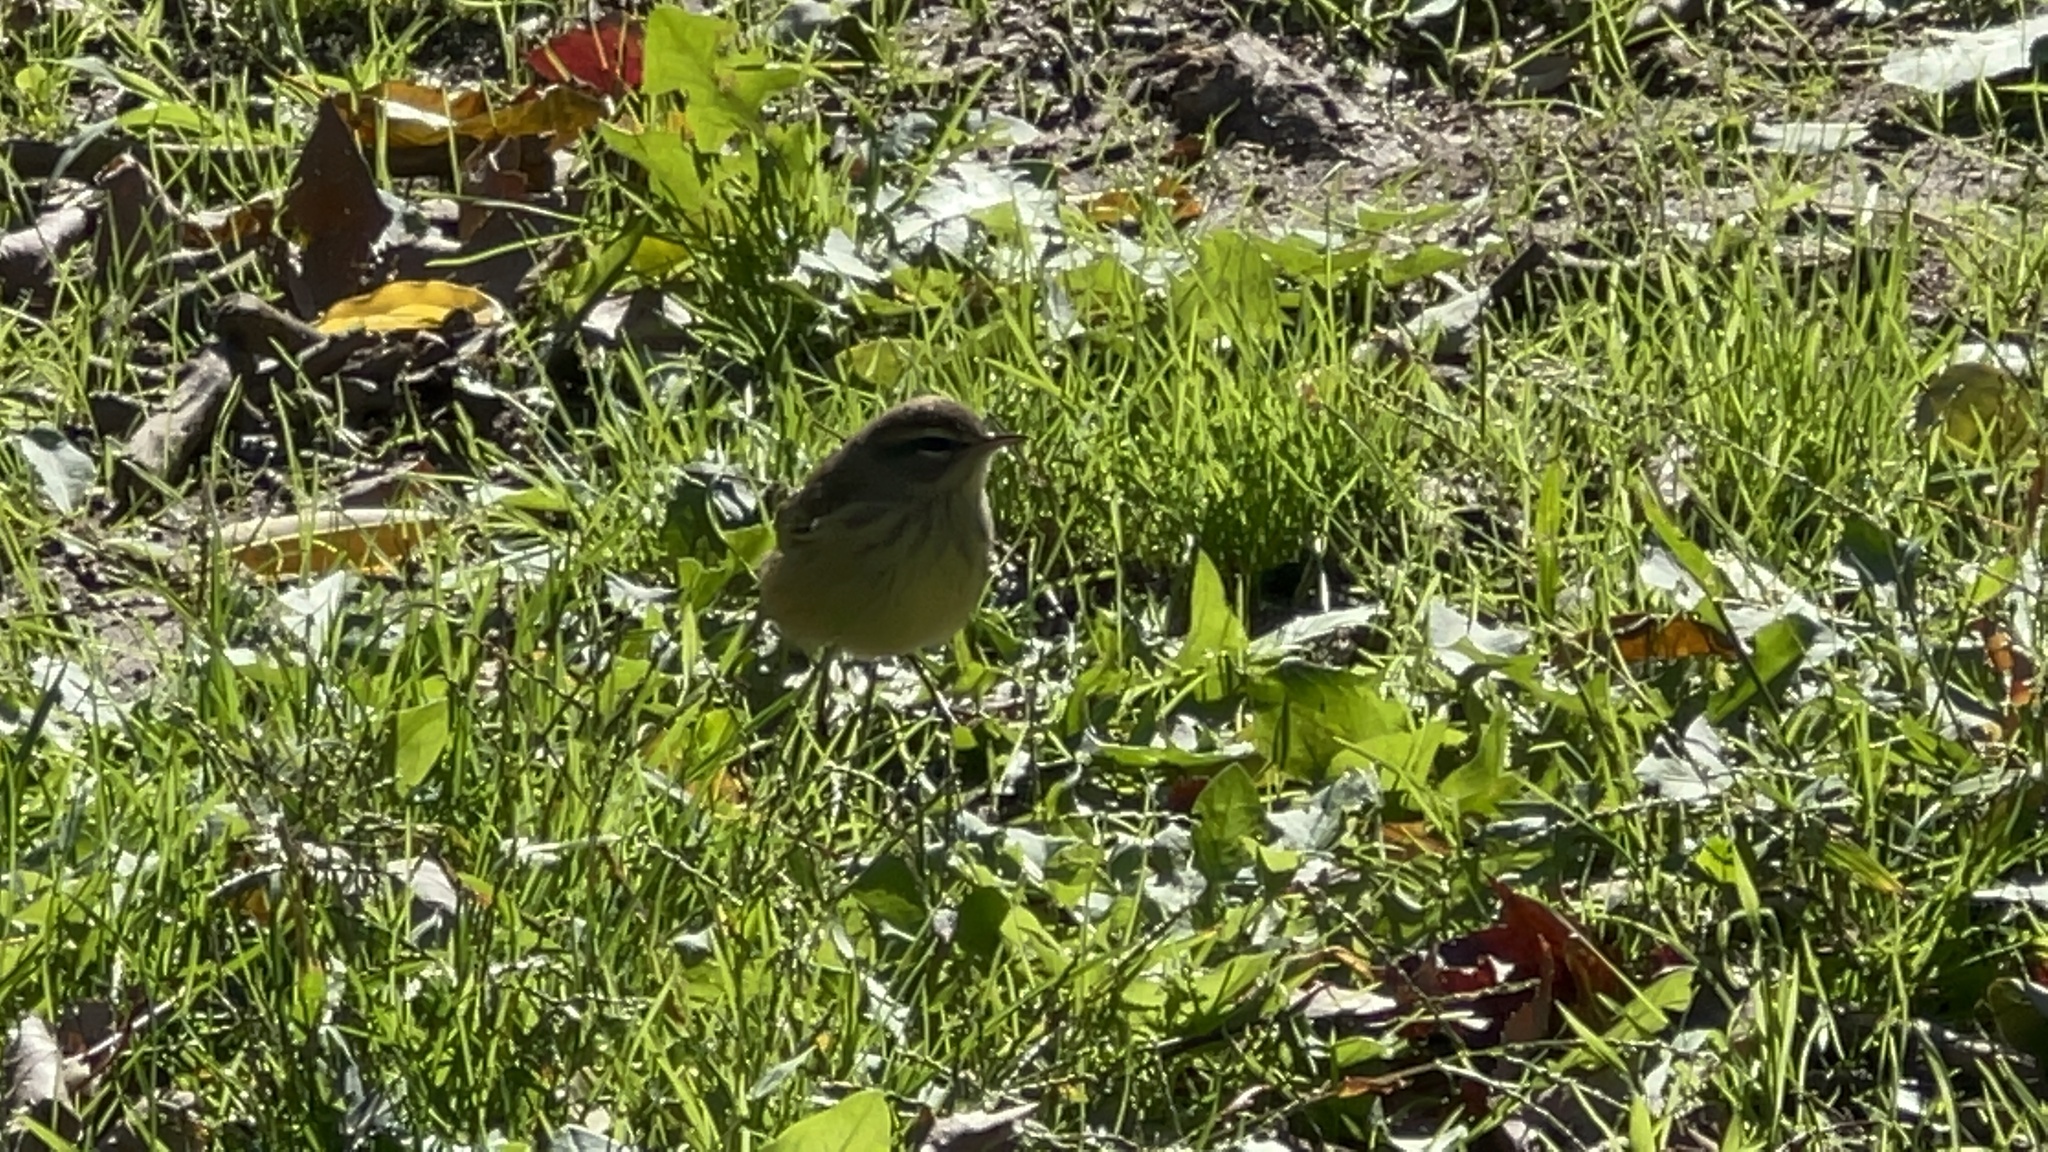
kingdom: Animalia
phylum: Chordata
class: Aves
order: Passeriformes
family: Parulidae
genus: Setophaga
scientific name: Setophaga palmarum
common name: Palm warbler
